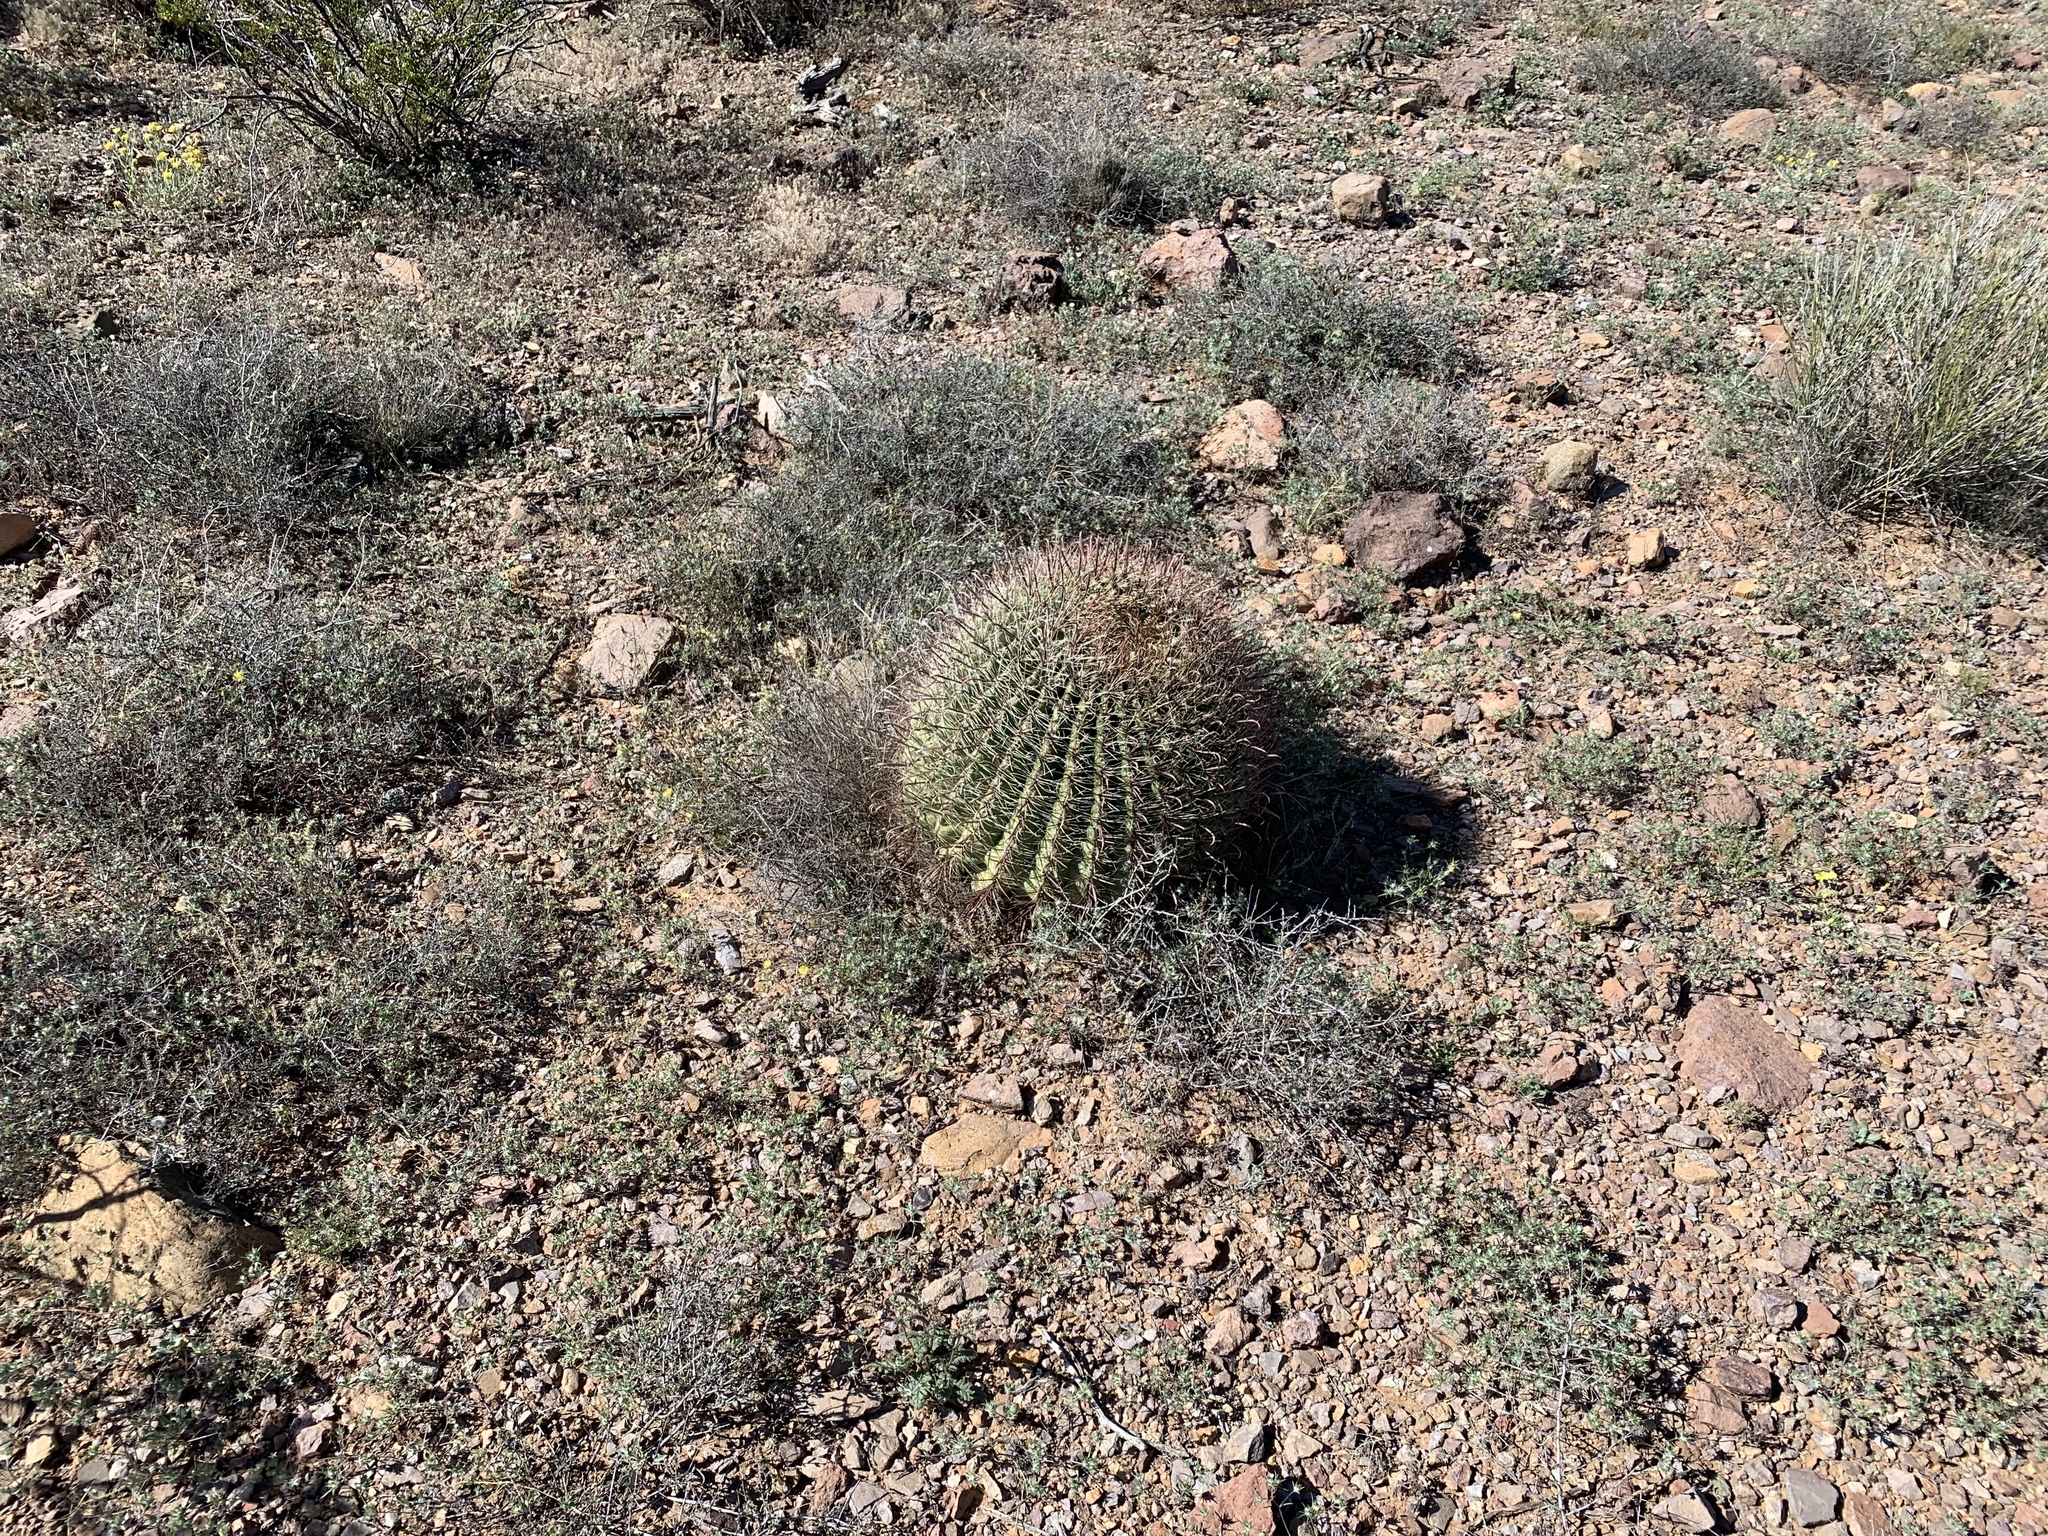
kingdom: Plantae
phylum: Tracheophyta
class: Magnoliopsida
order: Caryophyllales
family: Cactaceae
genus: Ferocactus
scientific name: Ferocactus wislizeni
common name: Candy barrel cactus
